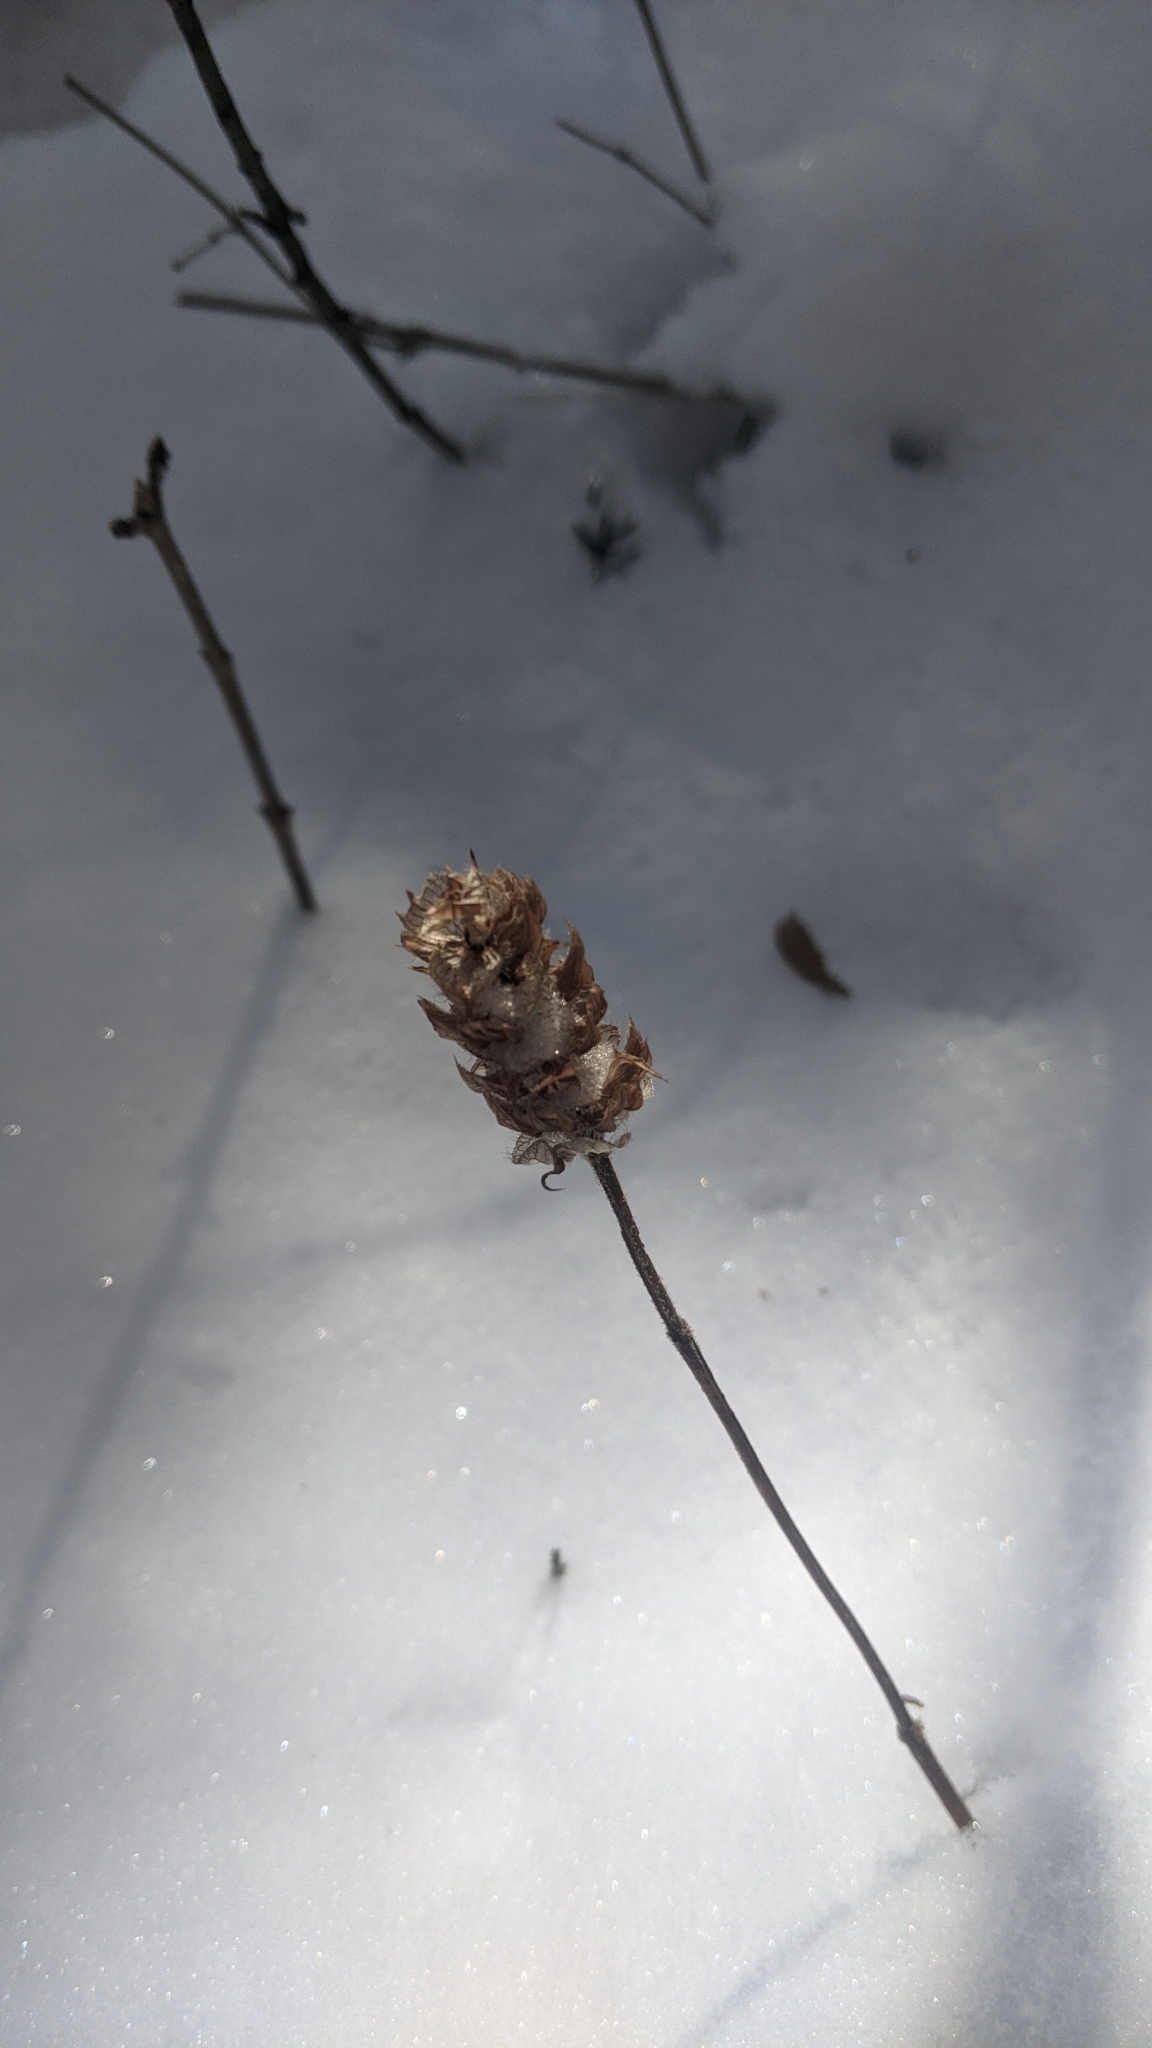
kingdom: Plantae
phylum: Tracheophyta
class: Magnoliopsida
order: Lamiales
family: Lamiaceae
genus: Prunella
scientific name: Prunella vulgaris
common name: Heal-all
